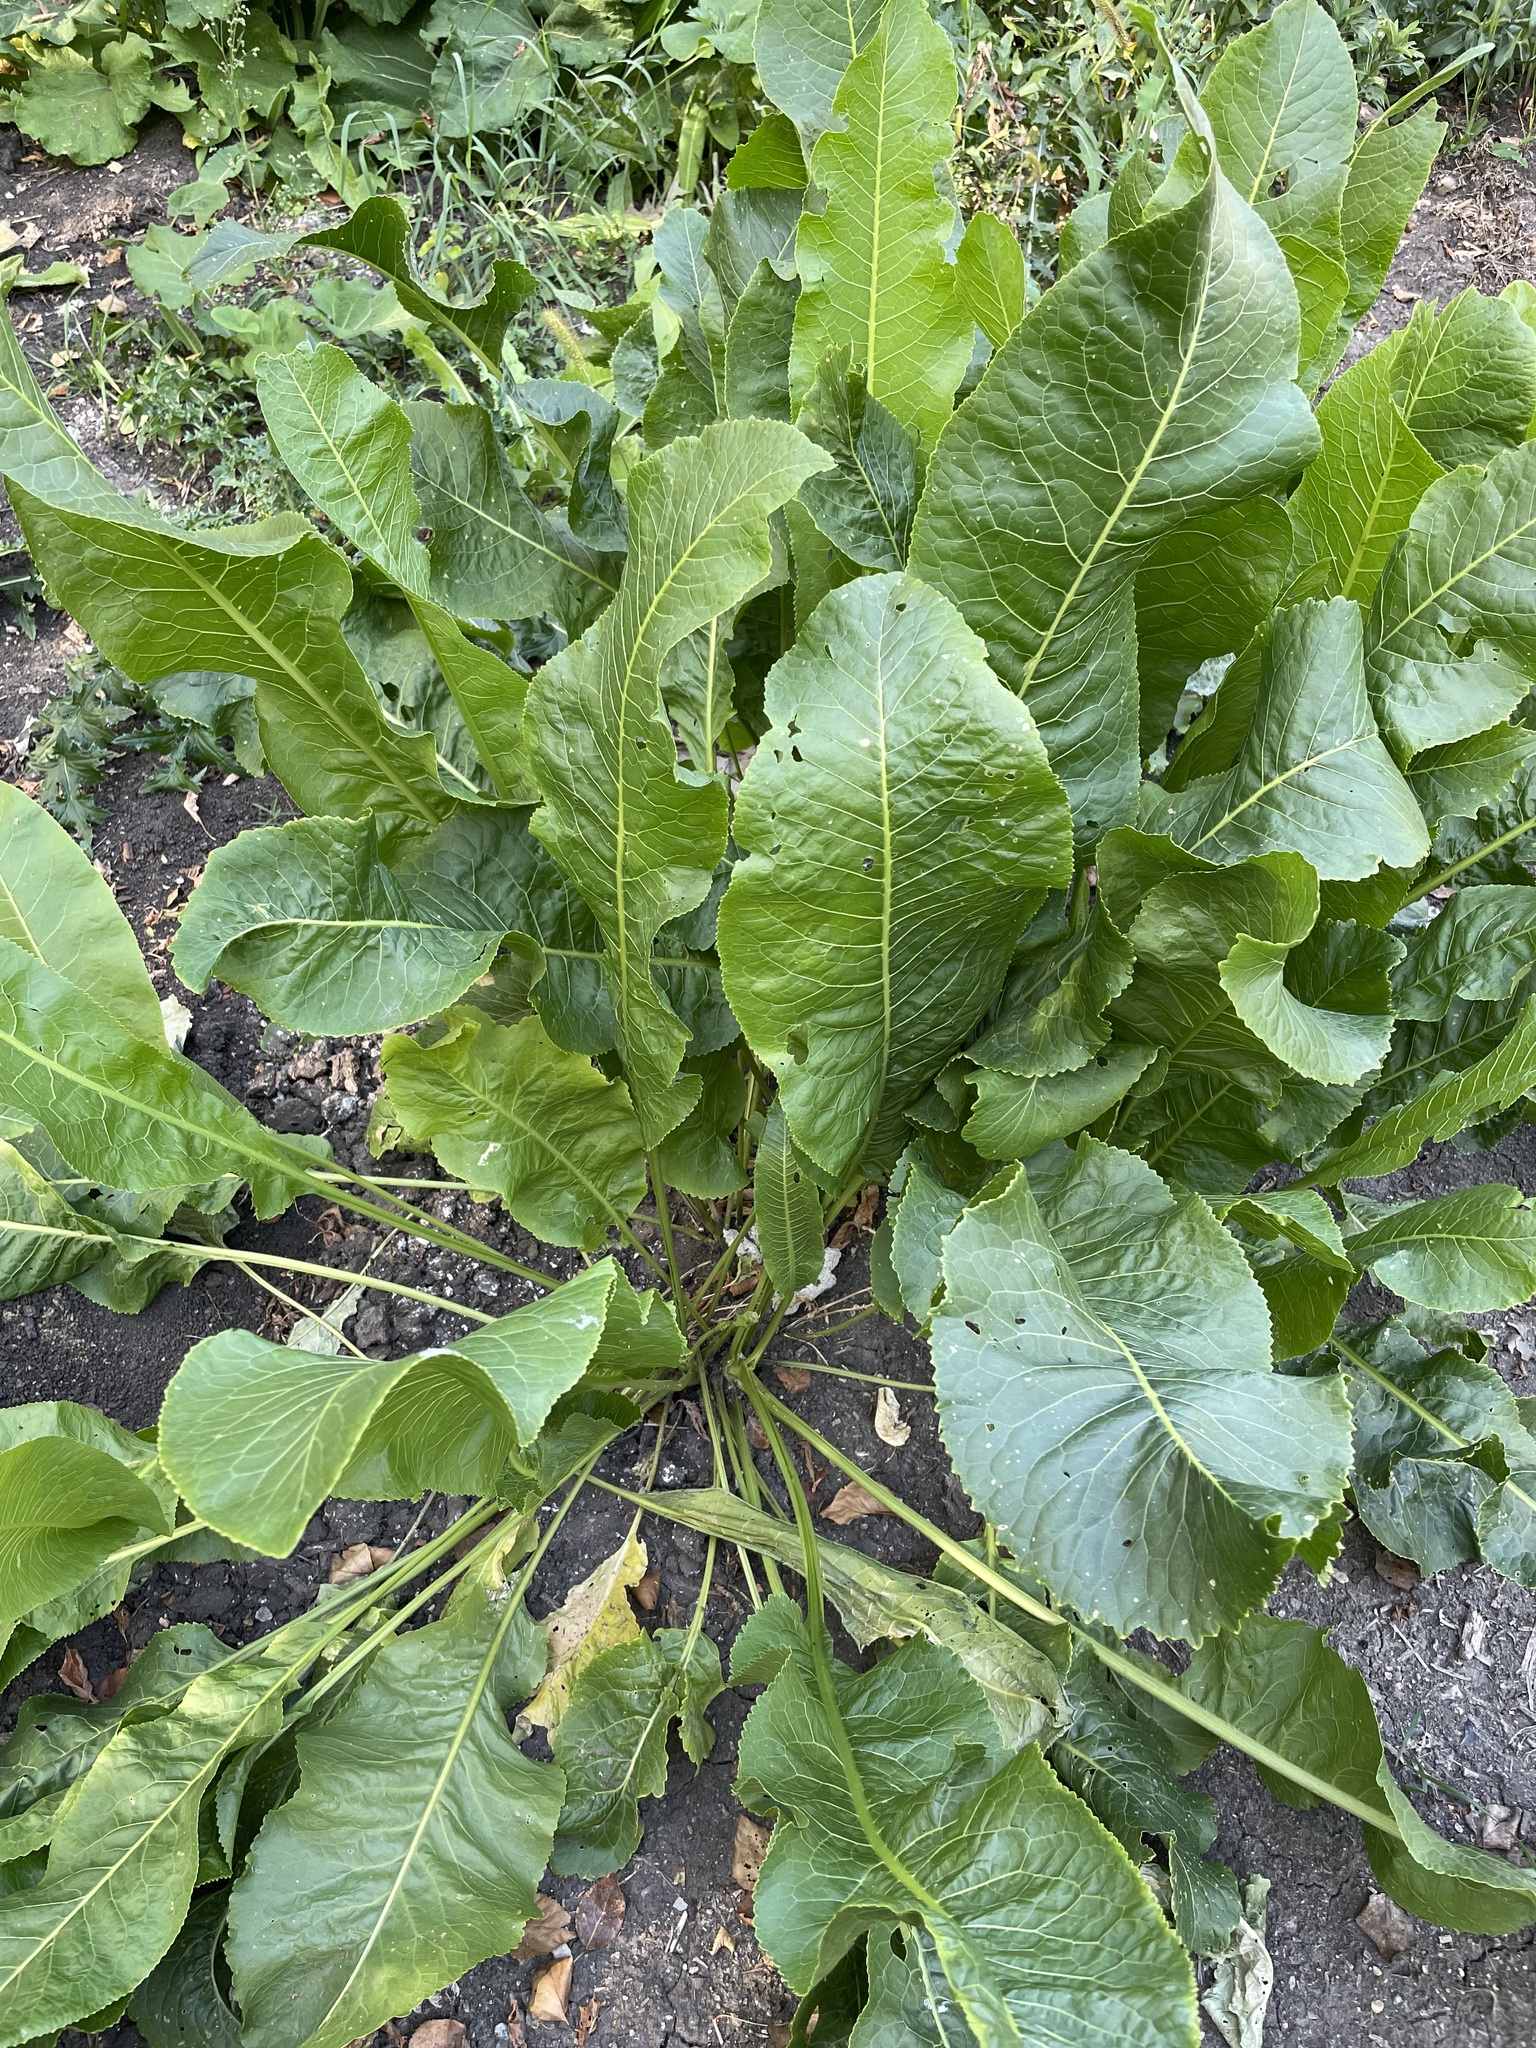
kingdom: Plantae
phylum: Tracheophyta
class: Magnoliopsida
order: Brassicales
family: Brassicaceae
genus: Armoracia
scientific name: Armoracia rusticana
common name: Horseradish
